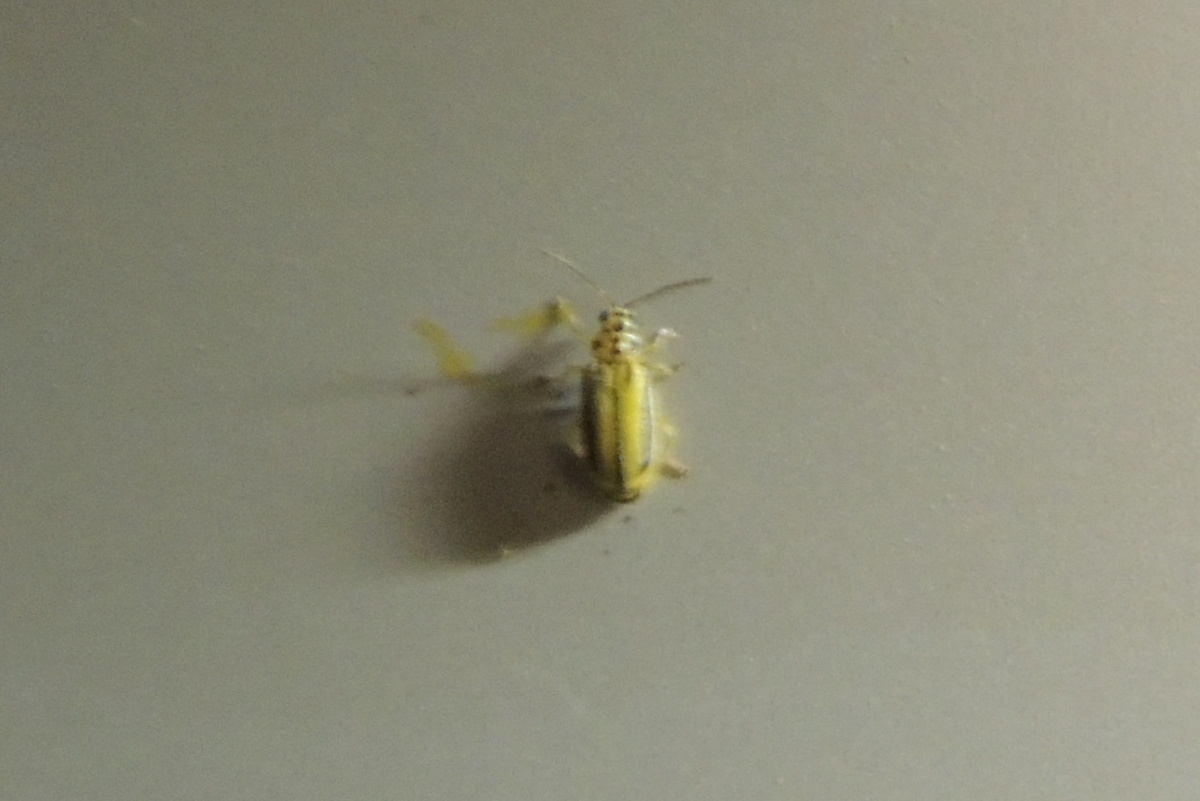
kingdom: Animalia
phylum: Arthropoda
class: Insecta
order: Coleoptera
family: Chrysomelidae
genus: Xanthogaleruca
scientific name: Xanthogaleruca luteola
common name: Elm leaf beetle
